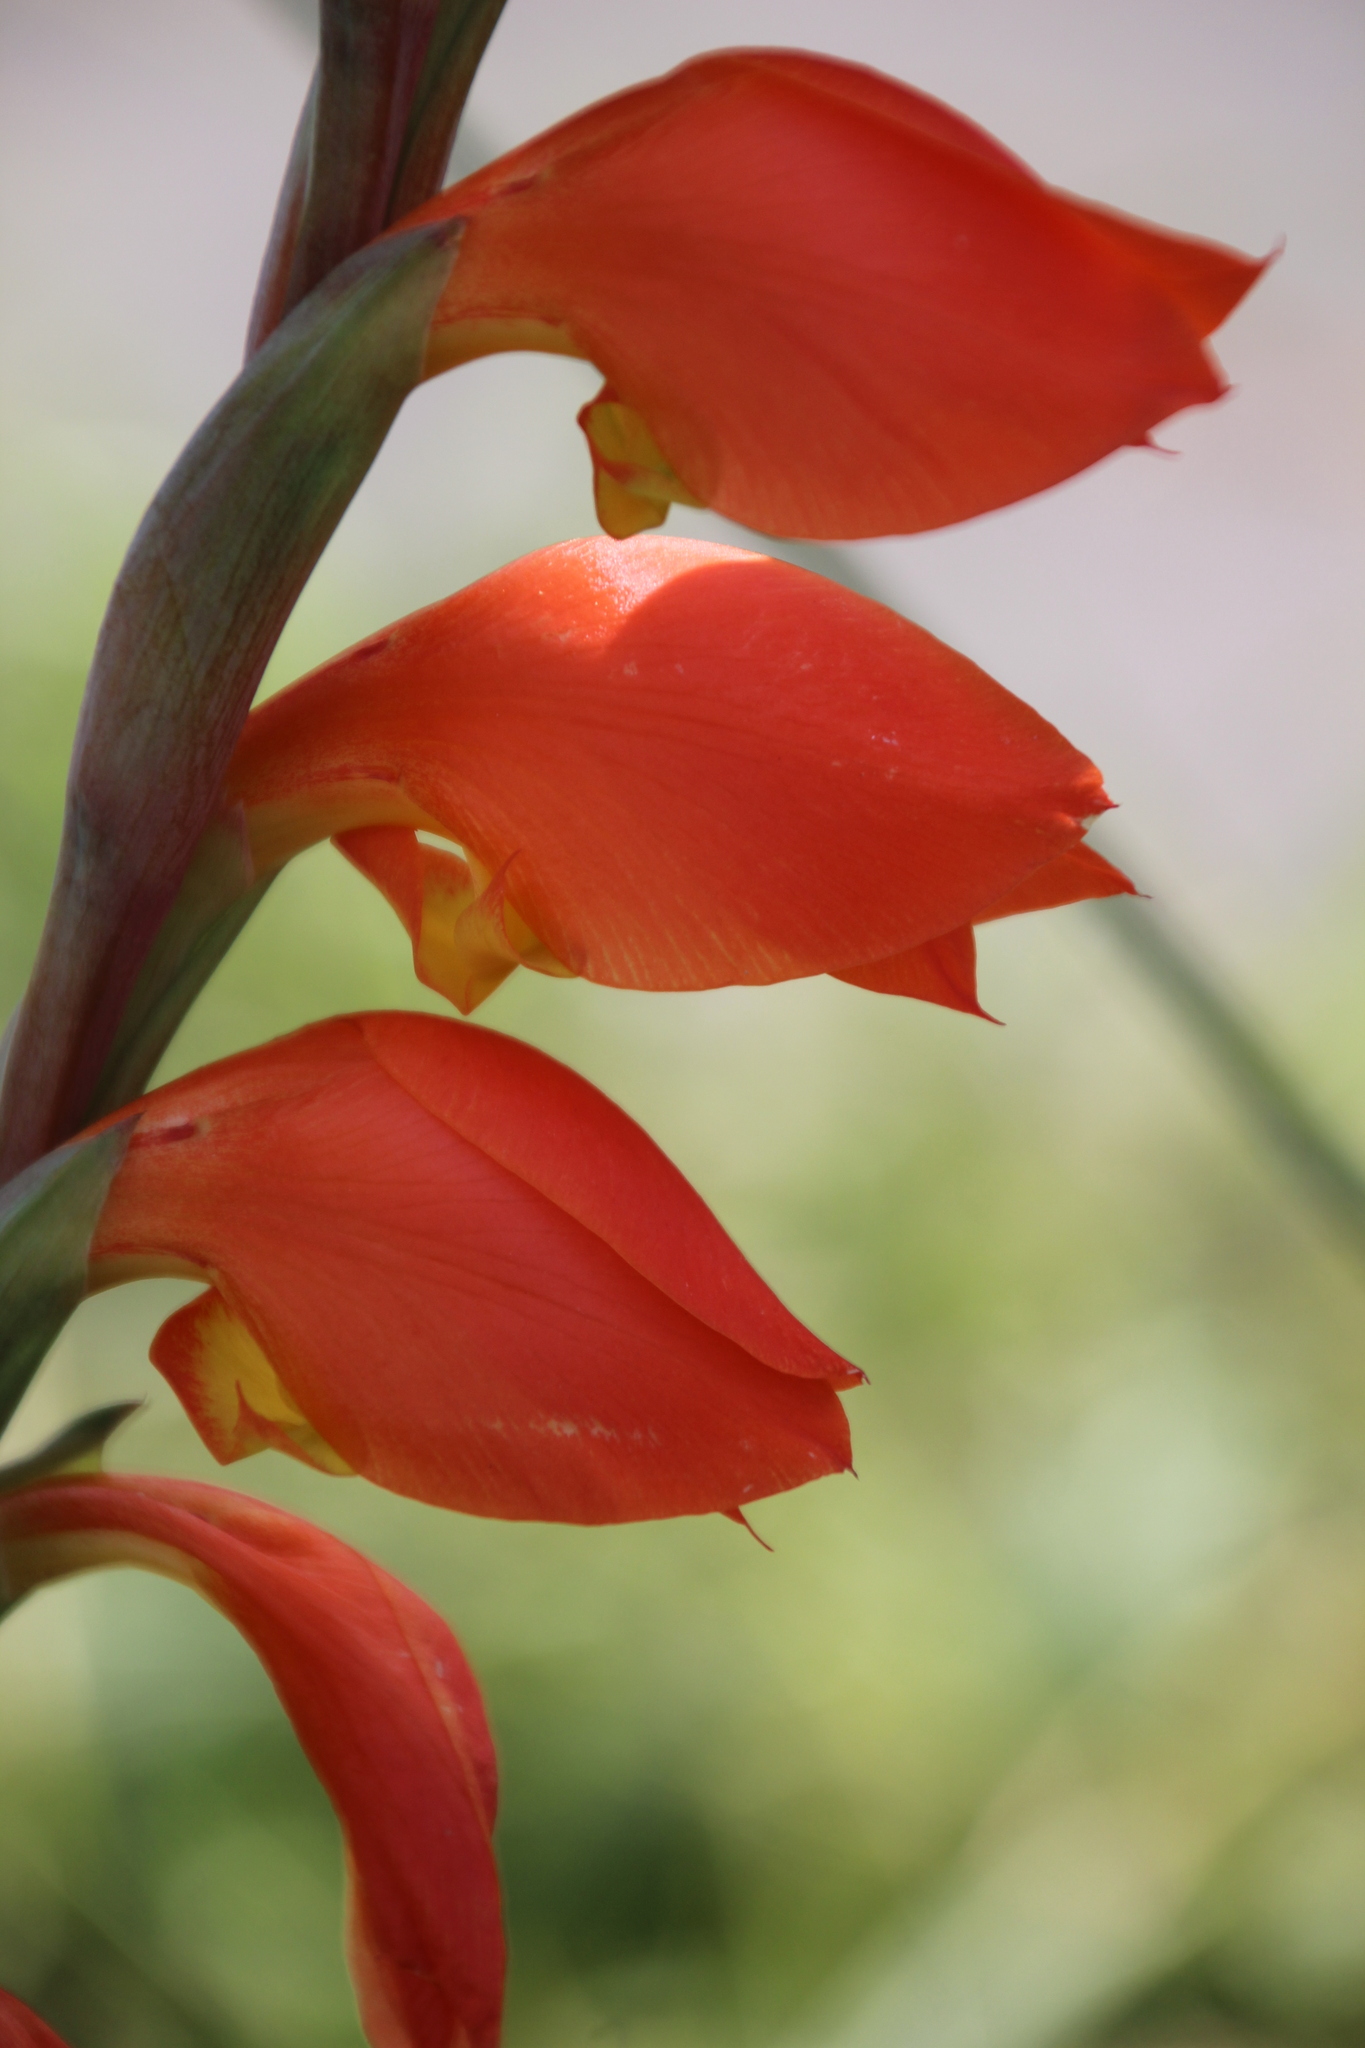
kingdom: Plantae
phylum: Tracheophyta
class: Liliopsida
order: Asparagales
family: Iridaceae
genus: Gladiolus
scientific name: Gladiolus dalenii
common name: Cornflag
